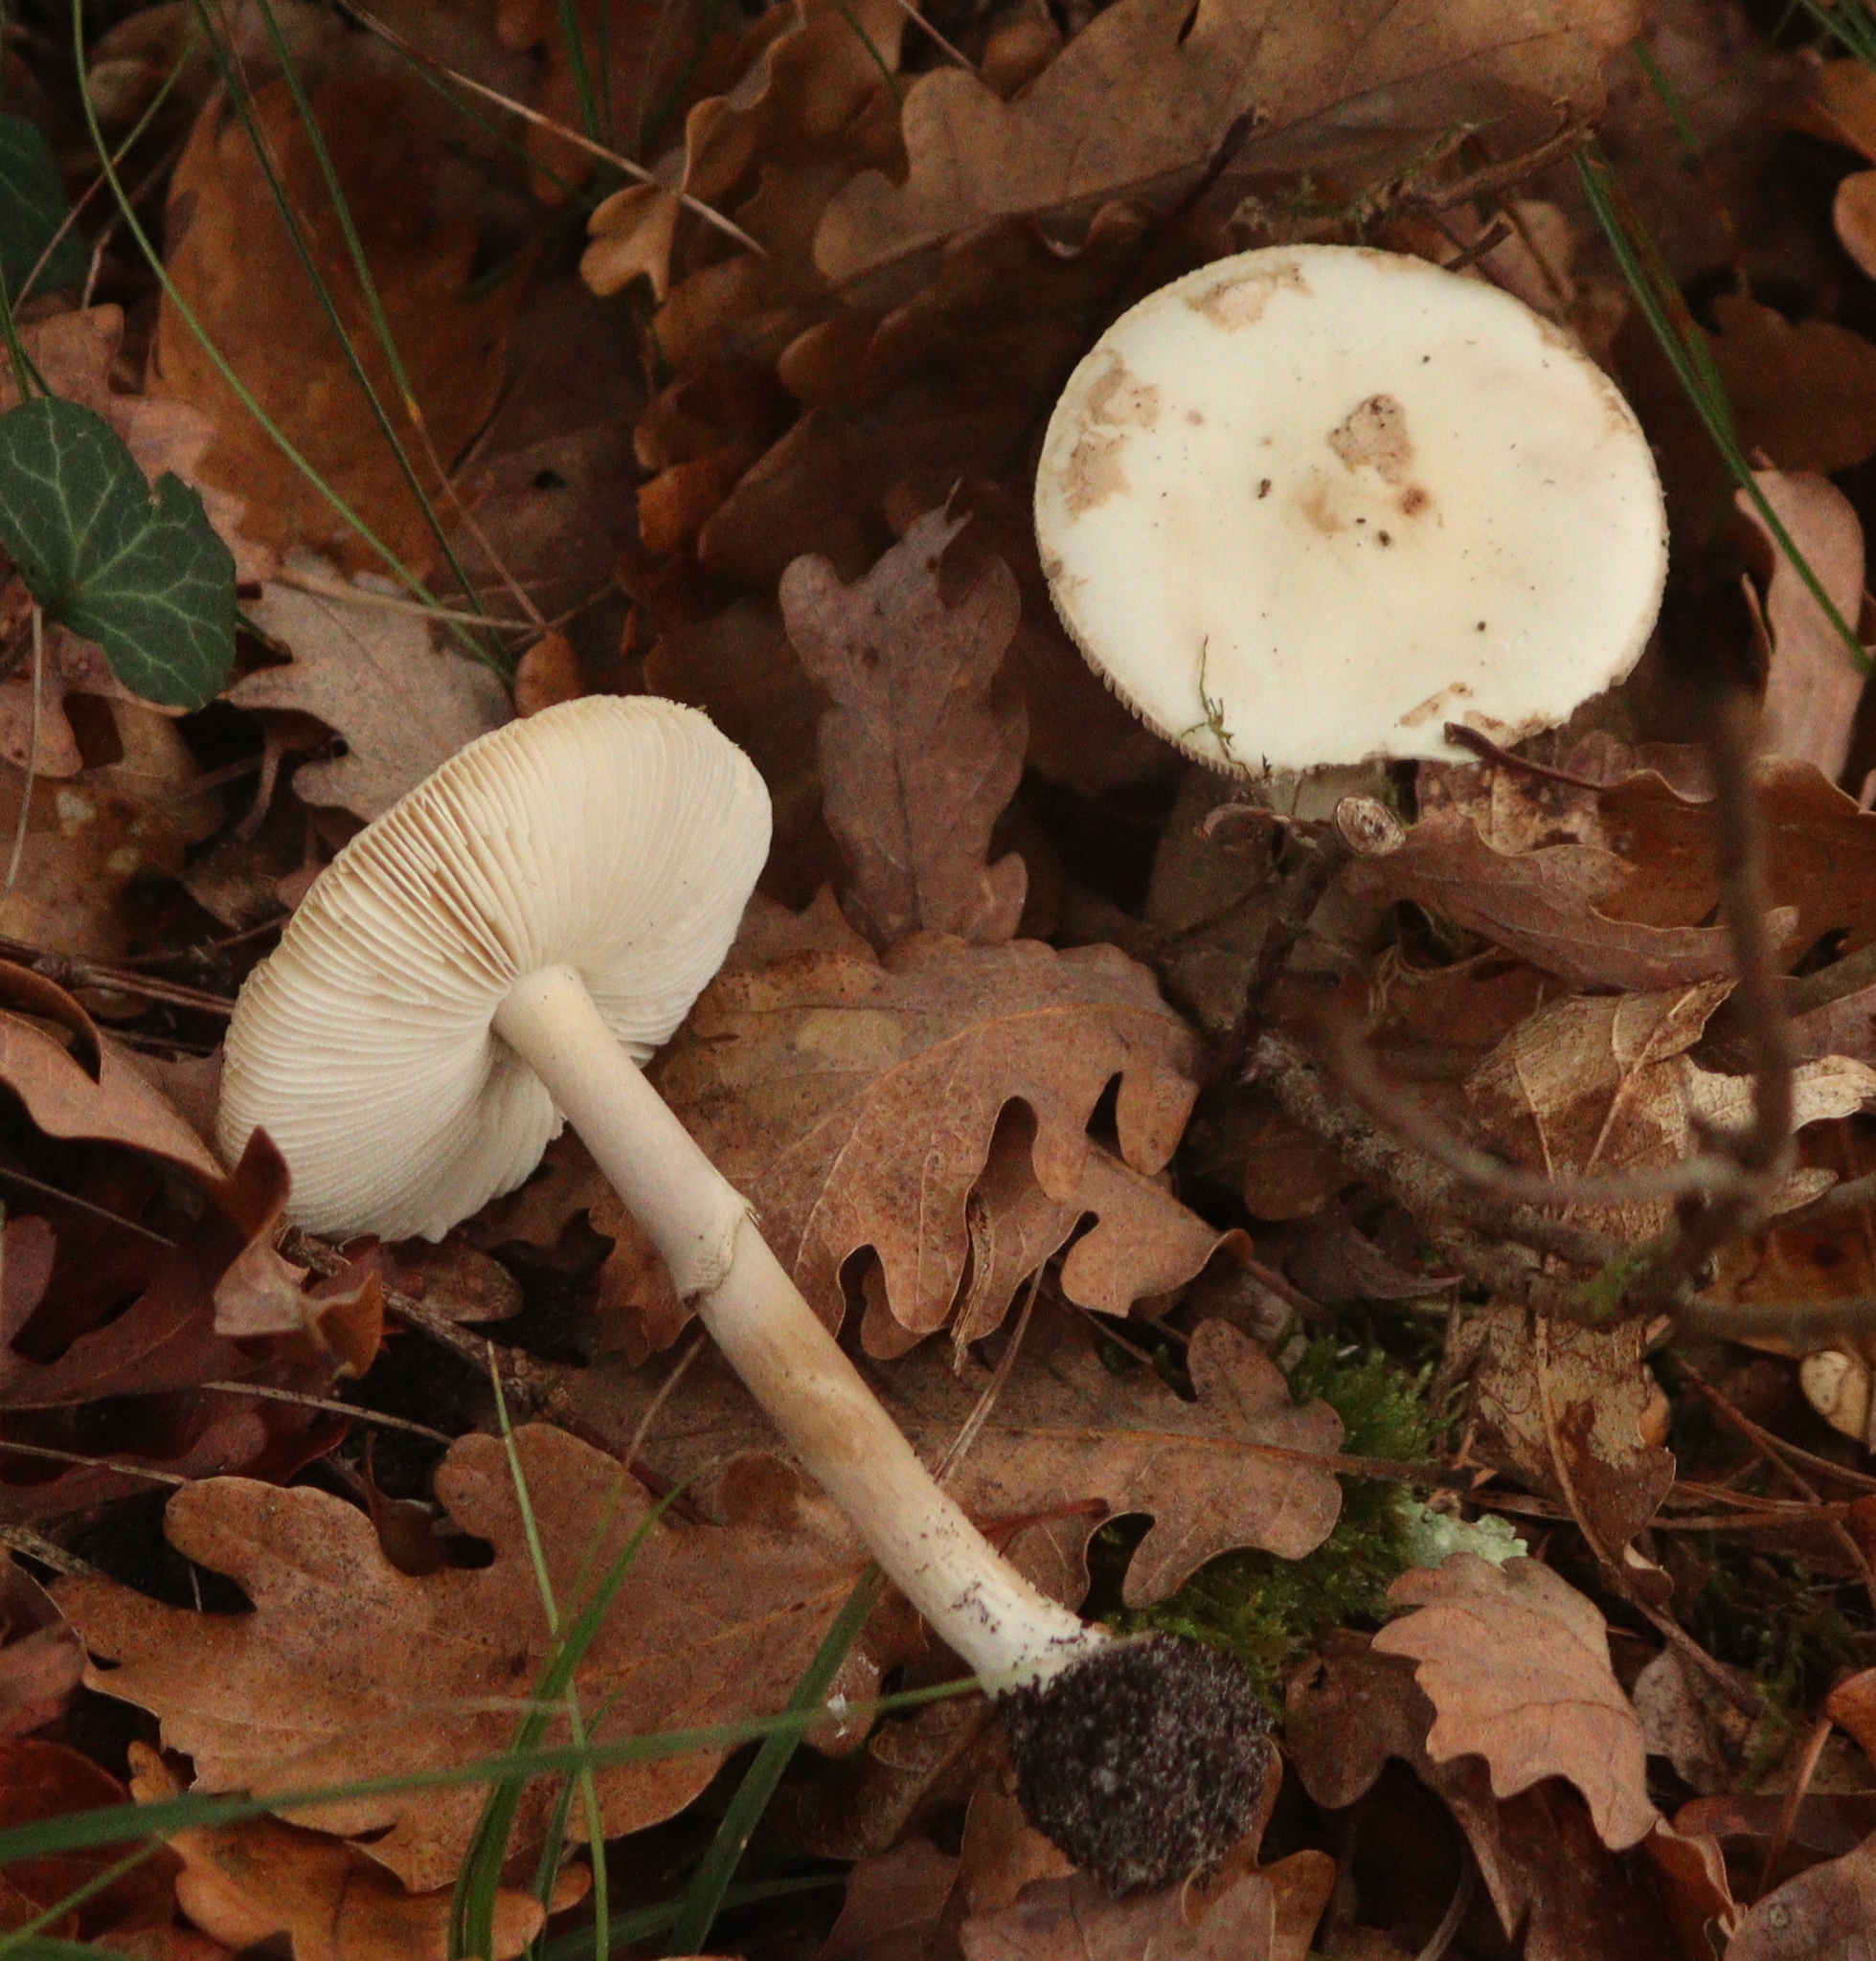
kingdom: Fungi
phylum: Basidiomycota
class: Agaricomycetes
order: Agaricales
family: Amanitaceae
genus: Amanita
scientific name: Amanita citrina
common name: False death-cap
